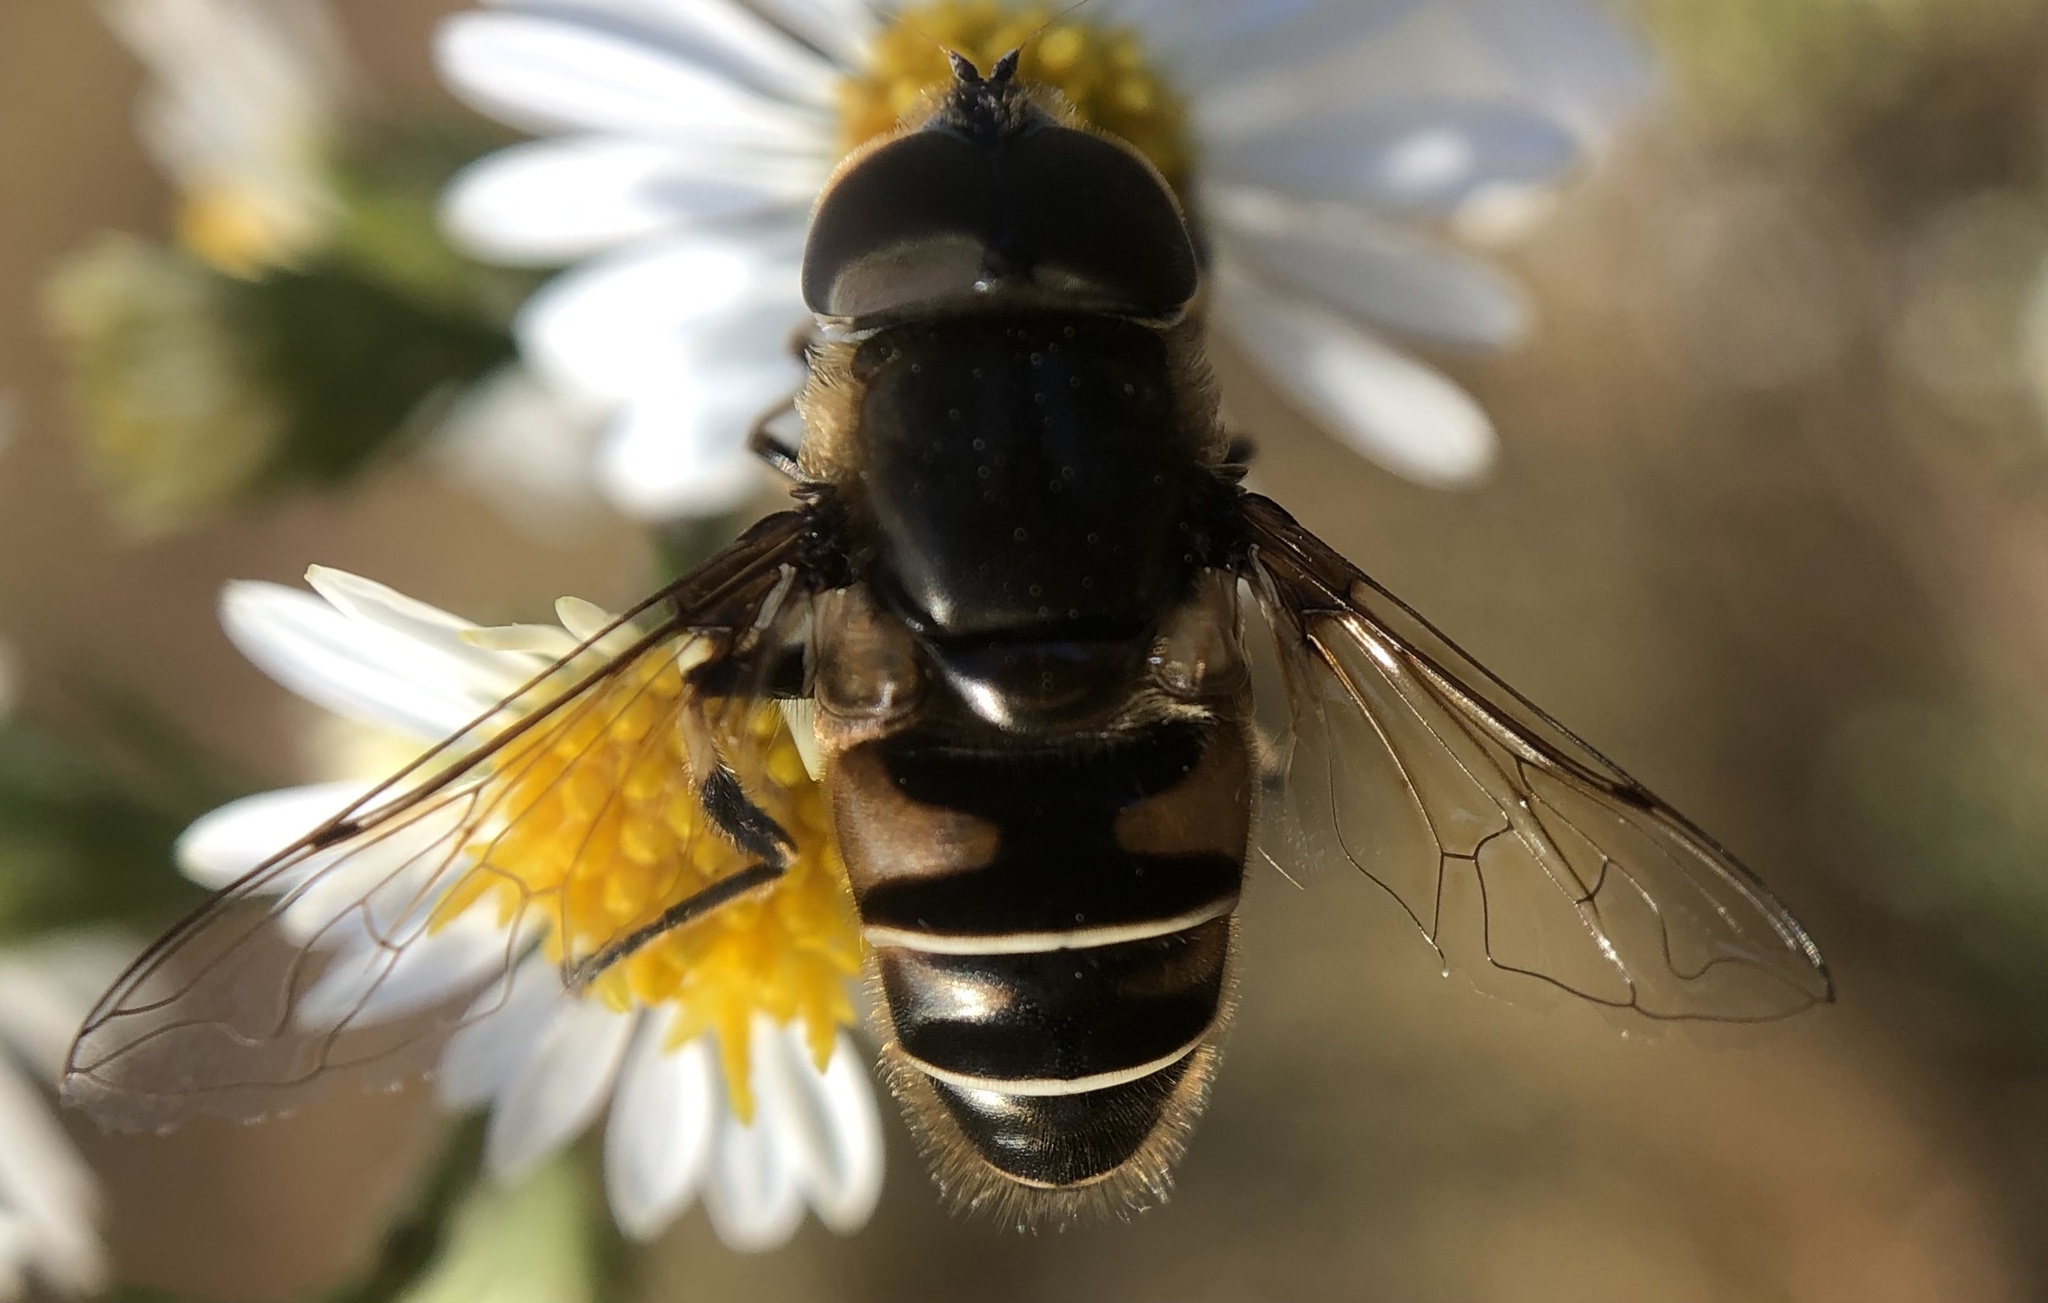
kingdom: Animalia
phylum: Arthropoda
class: Insecta
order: Diptera
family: Syrphidae
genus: Eristalis
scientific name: Eristalis dimidiata
